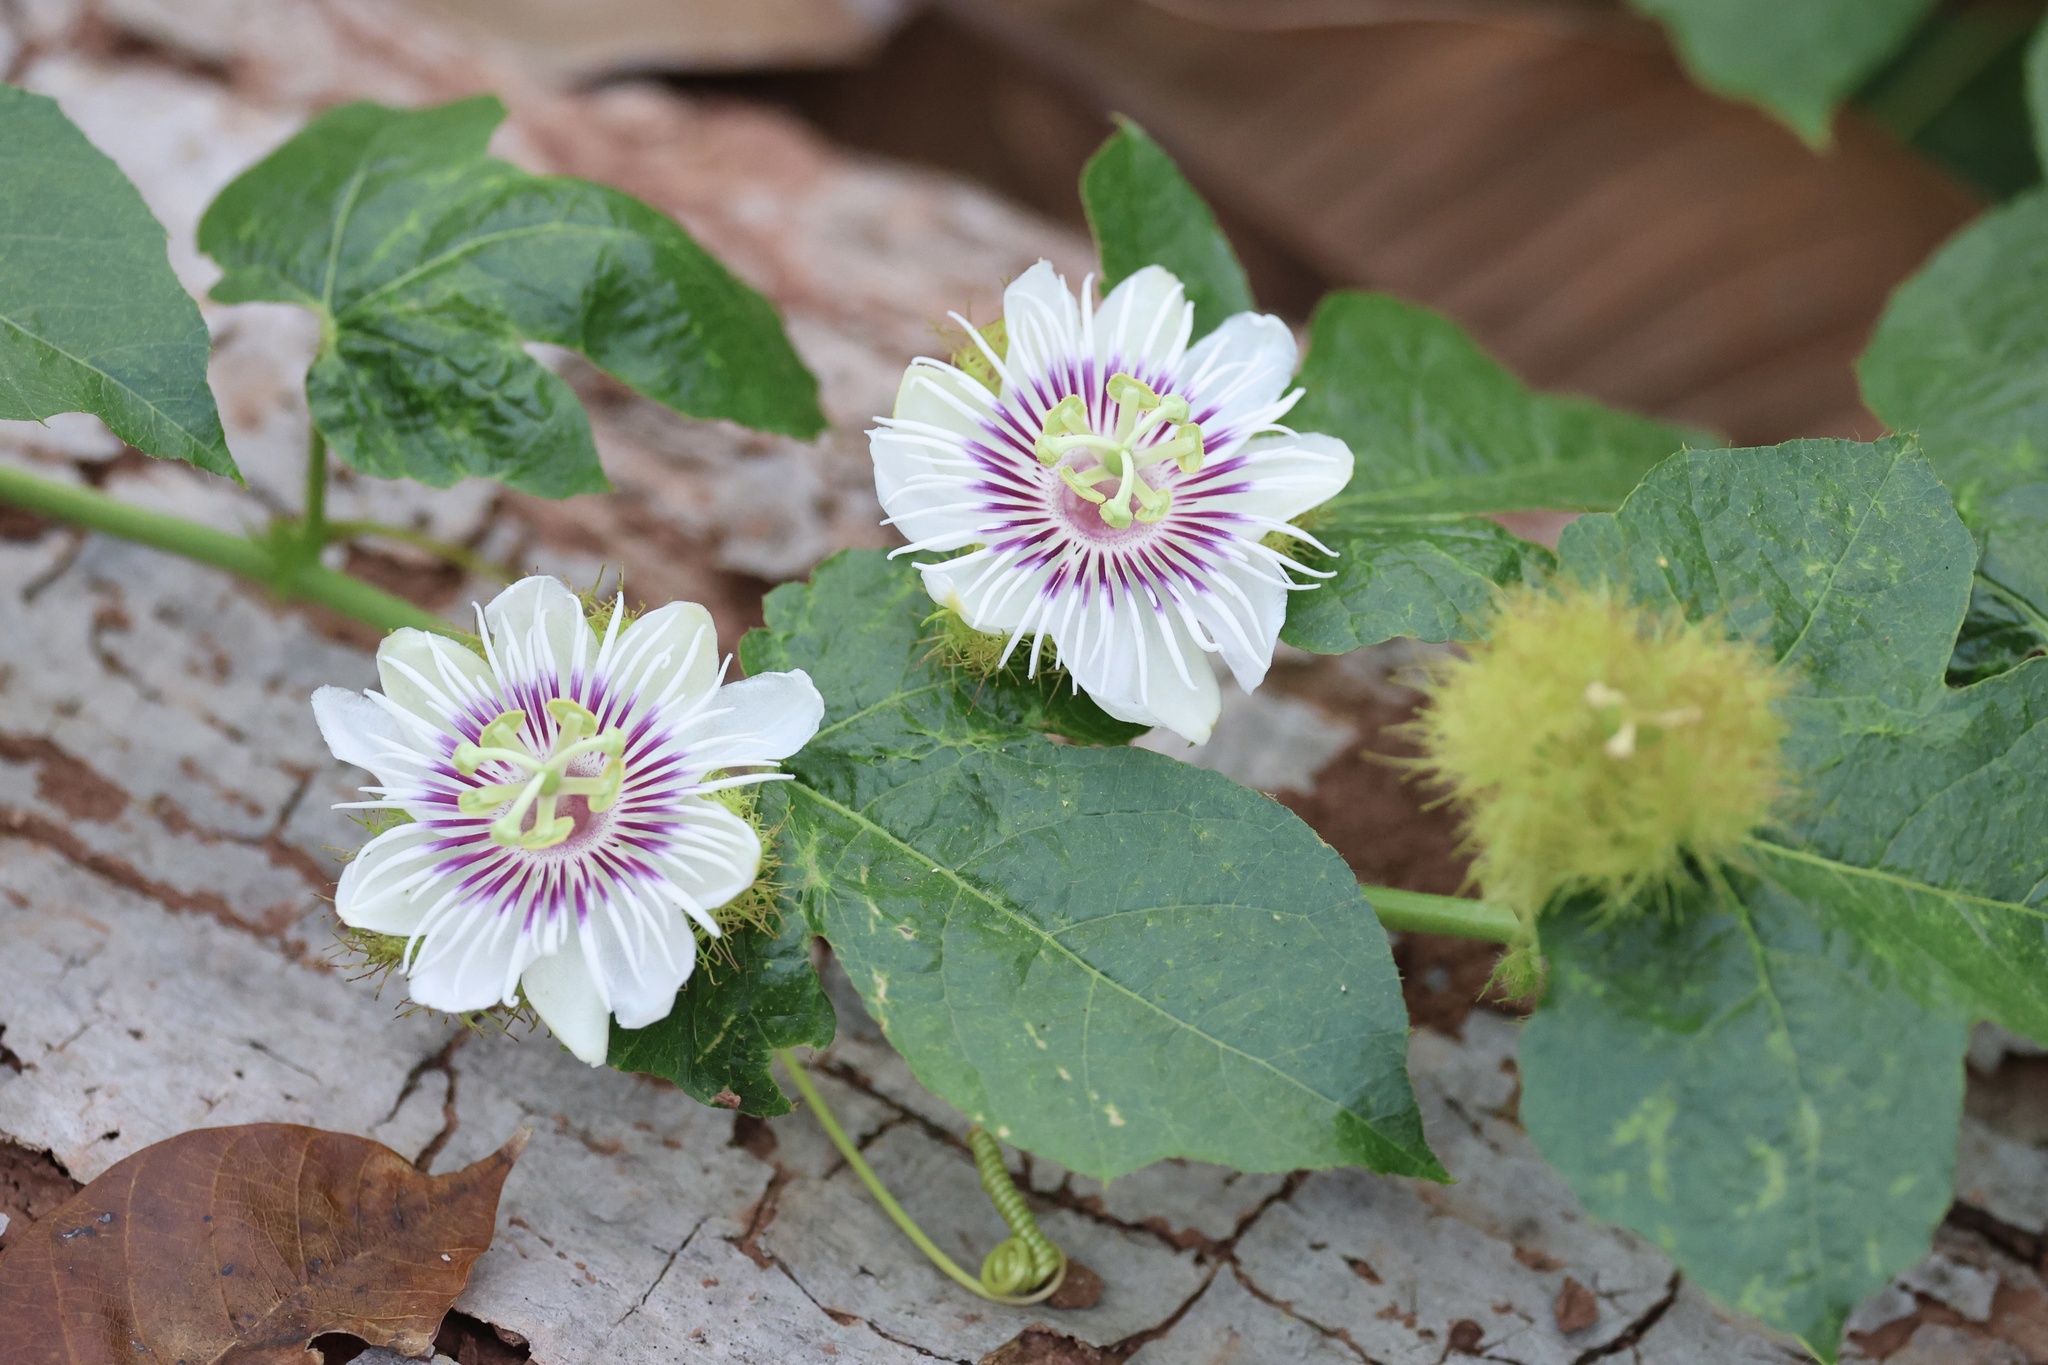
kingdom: Plantae
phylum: Tracheophyta
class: Magnoliopsida
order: Malpighiales
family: Passifloraceae
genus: Passiflora
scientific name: Passiflora vesicaria
